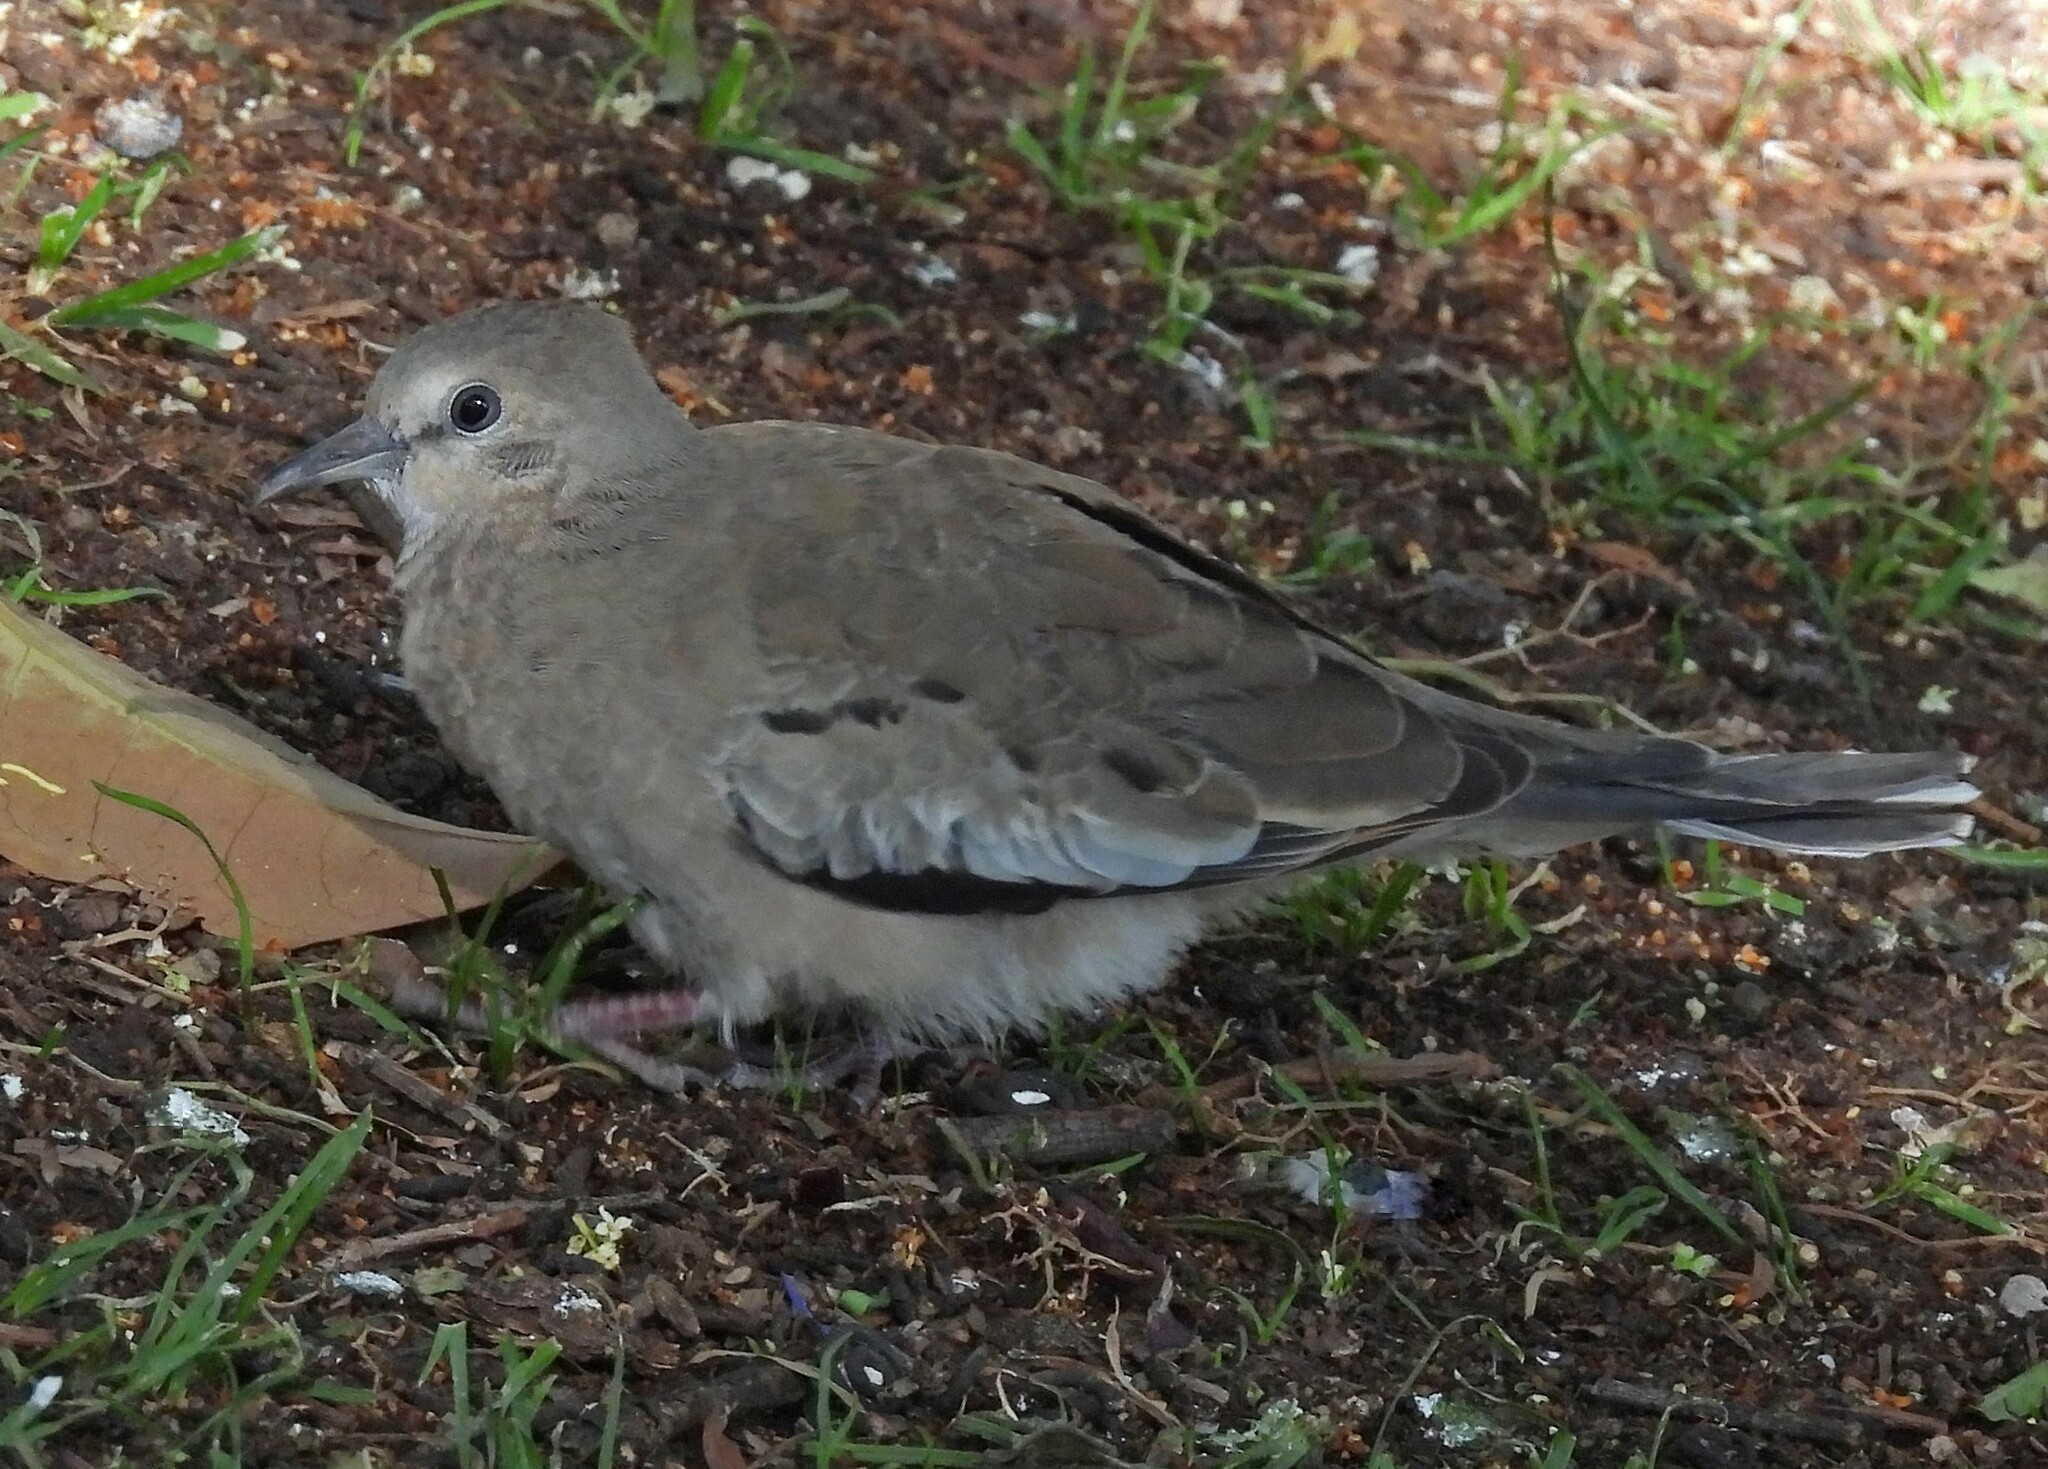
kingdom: Animalia
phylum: Chordata
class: Aves
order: Columbiformes
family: Columbidae
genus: Columbina
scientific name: Columbina picui
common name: Picui ground dove
